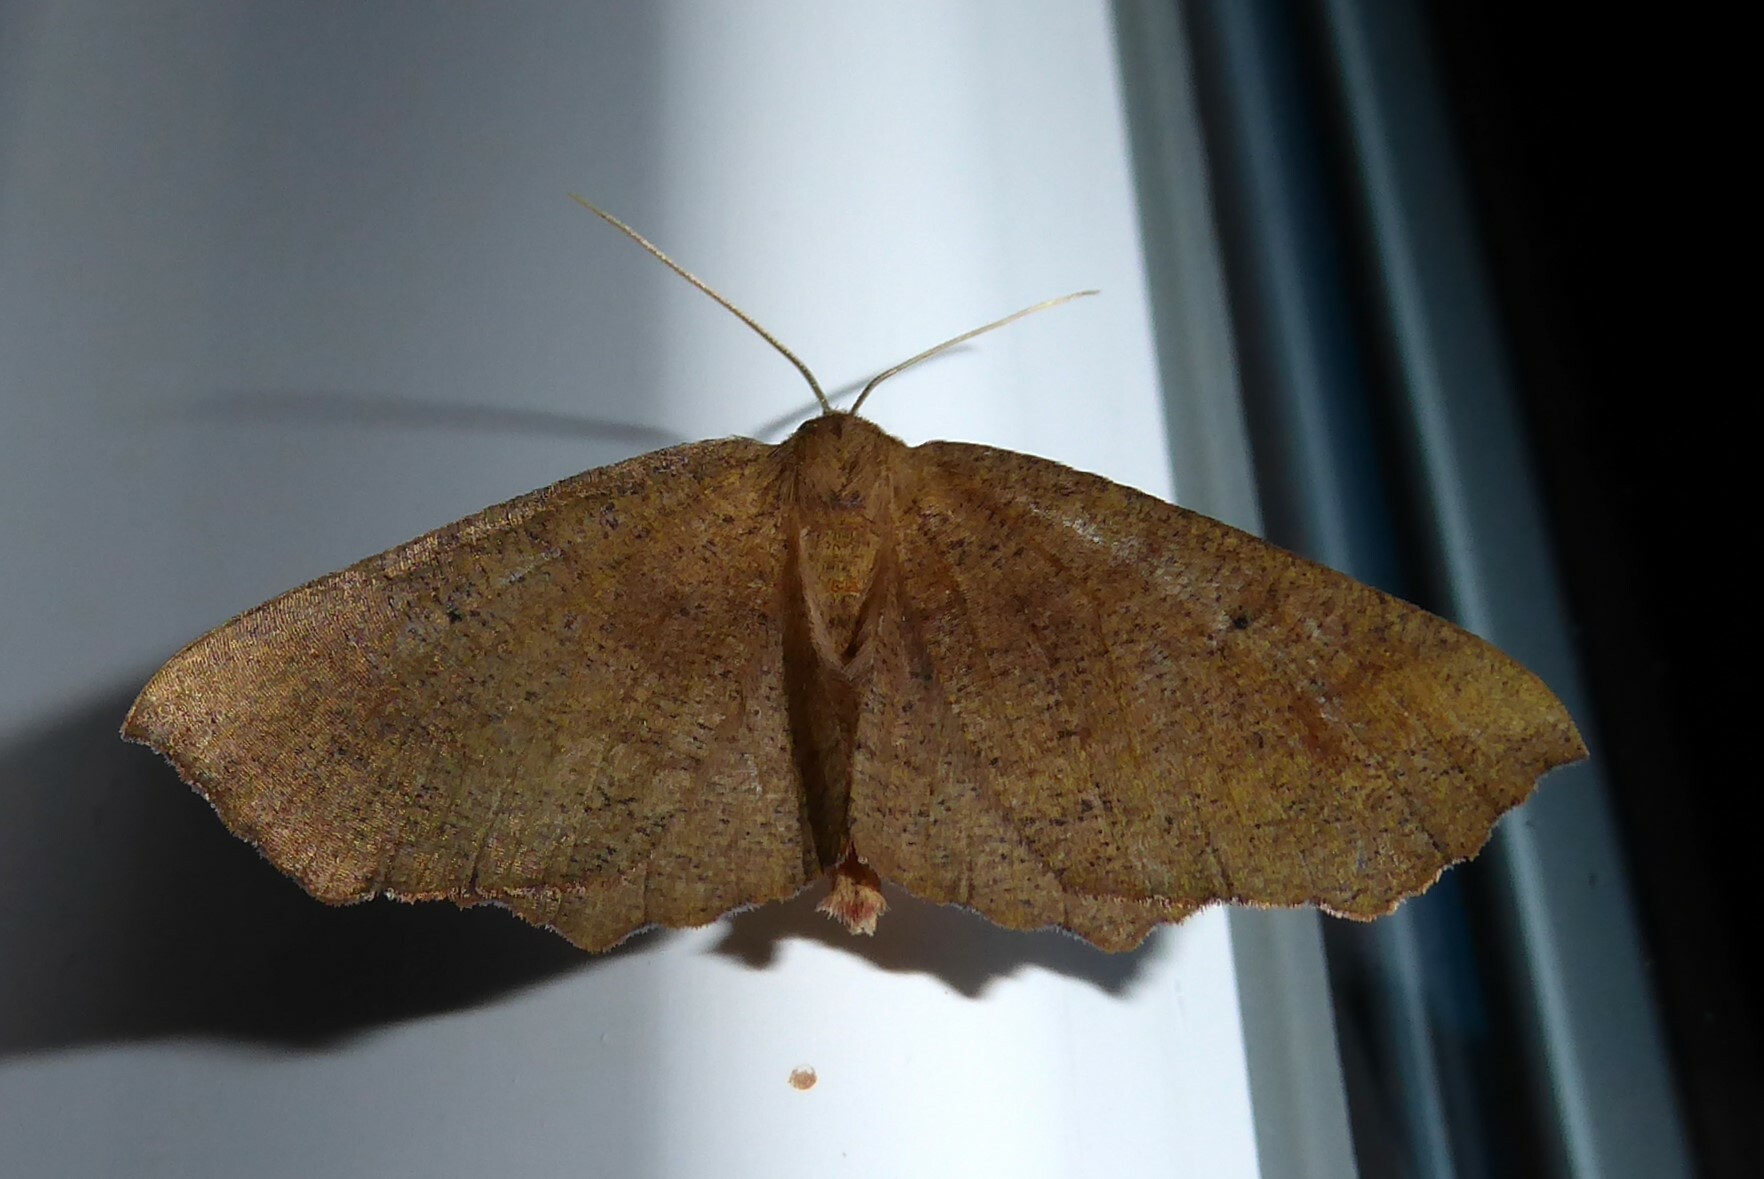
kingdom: Animalia
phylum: Arthropoda
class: Insecta
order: Lepidoptera
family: Geometridae
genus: Xyridacma
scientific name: Xyridacma ustaria
